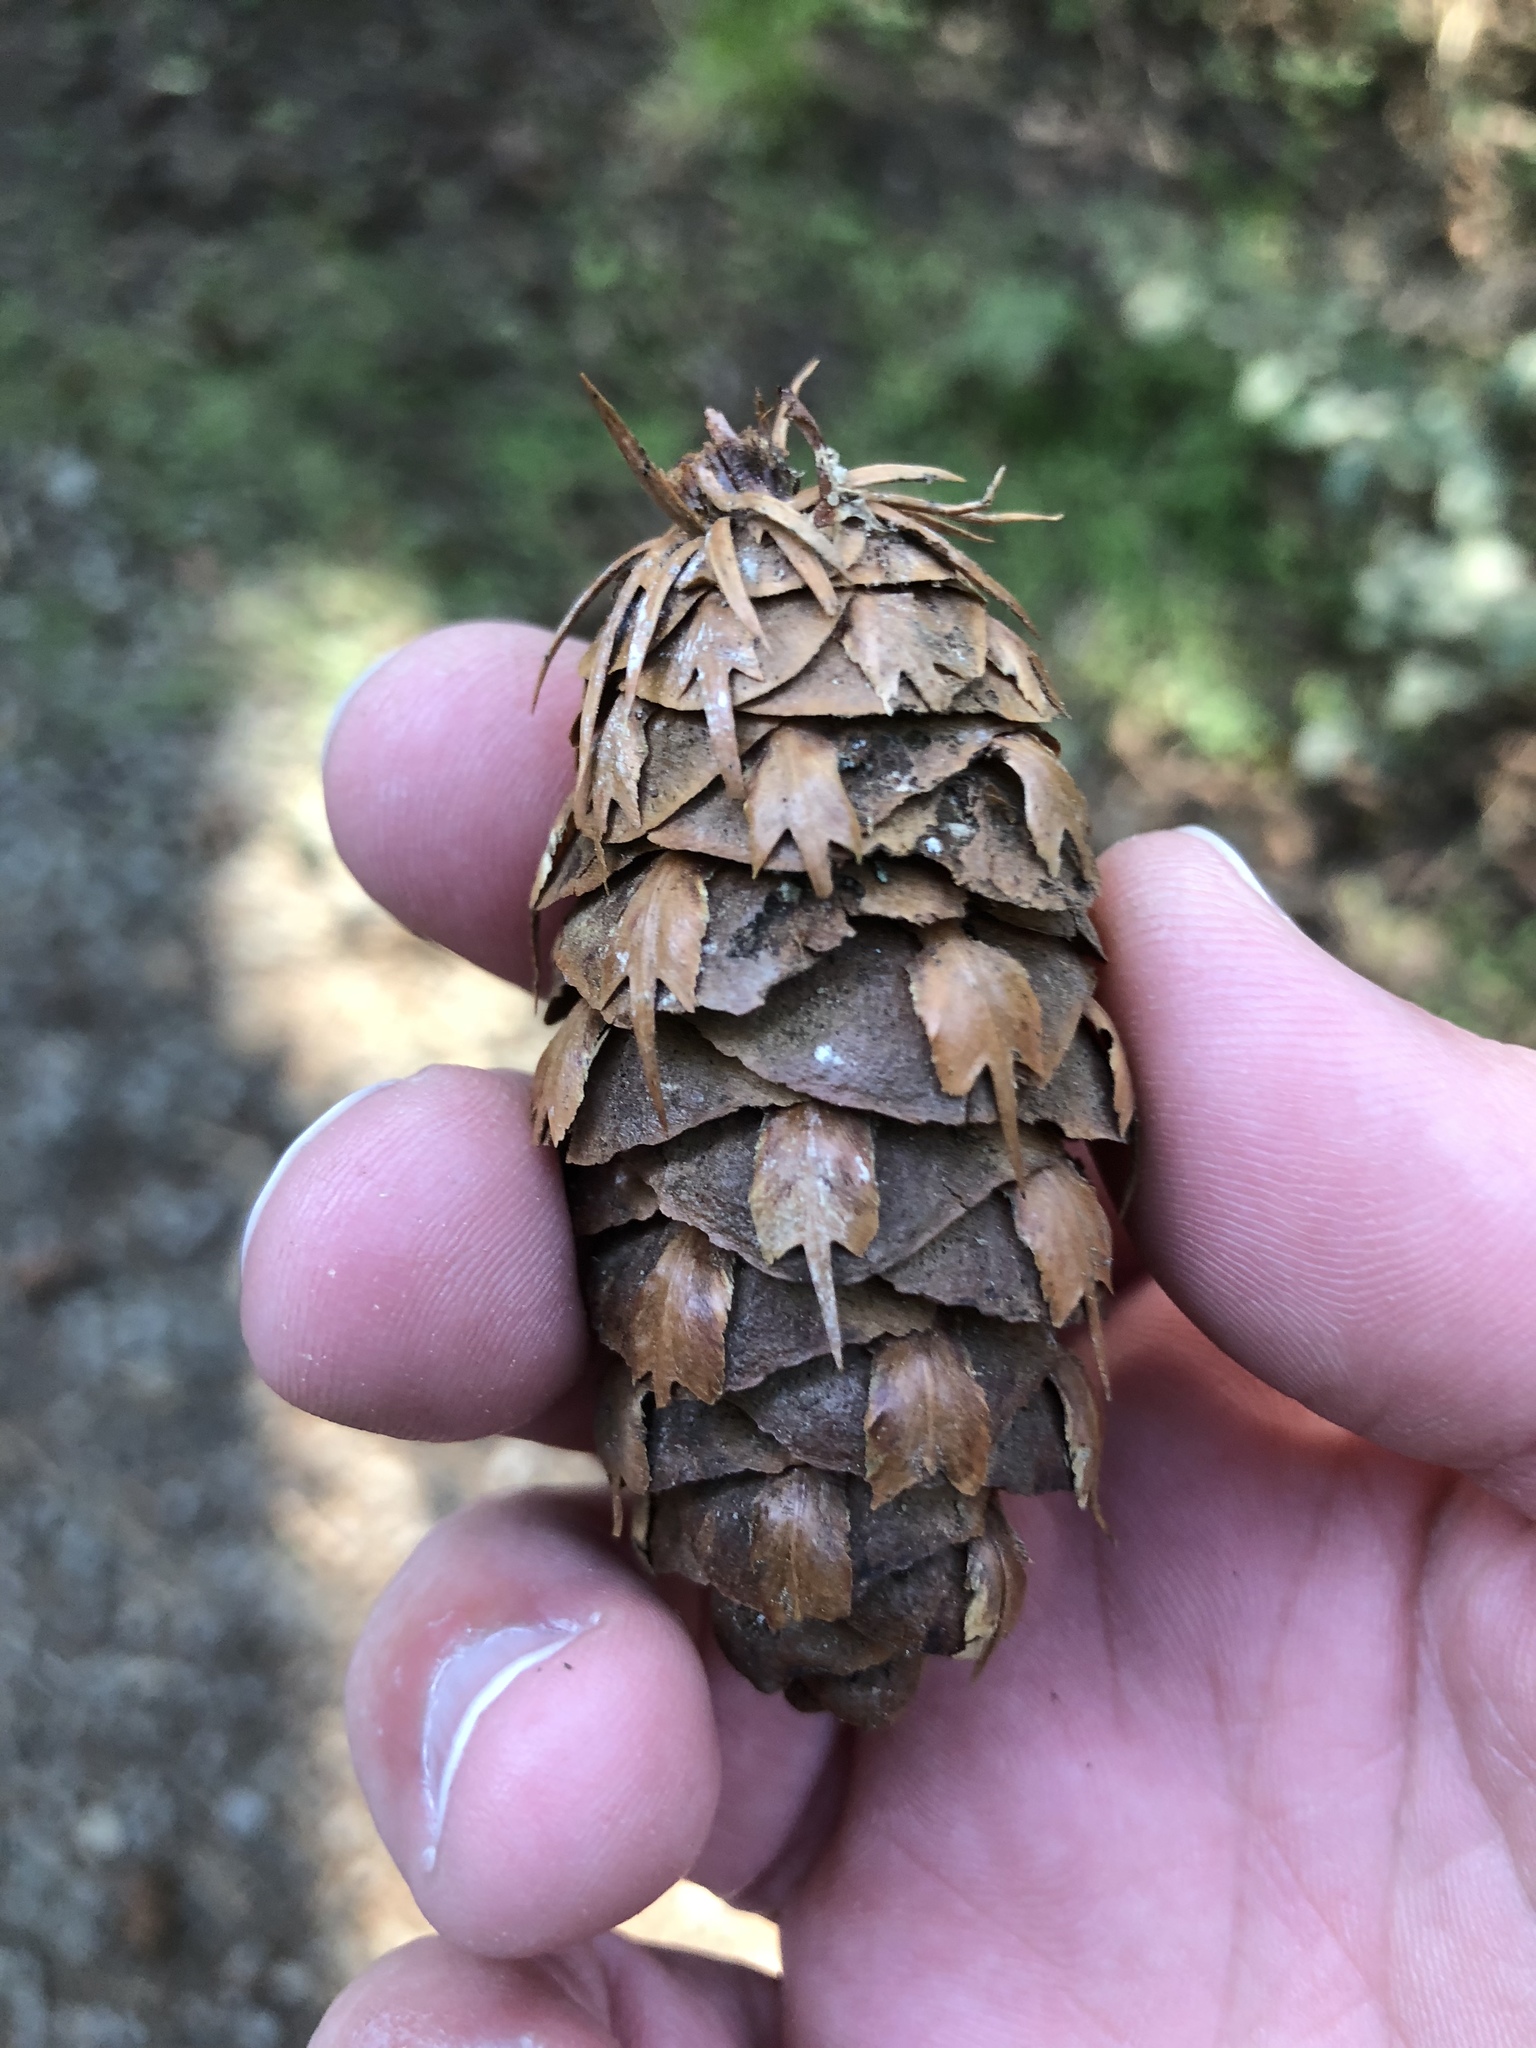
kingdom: Plantae
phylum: Tracheophyta
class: Pinopsida
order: Pinales
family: Pinaceae
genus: Pseudotsuga
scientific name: Pseudotsuga menziesii
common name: Douglas fir
